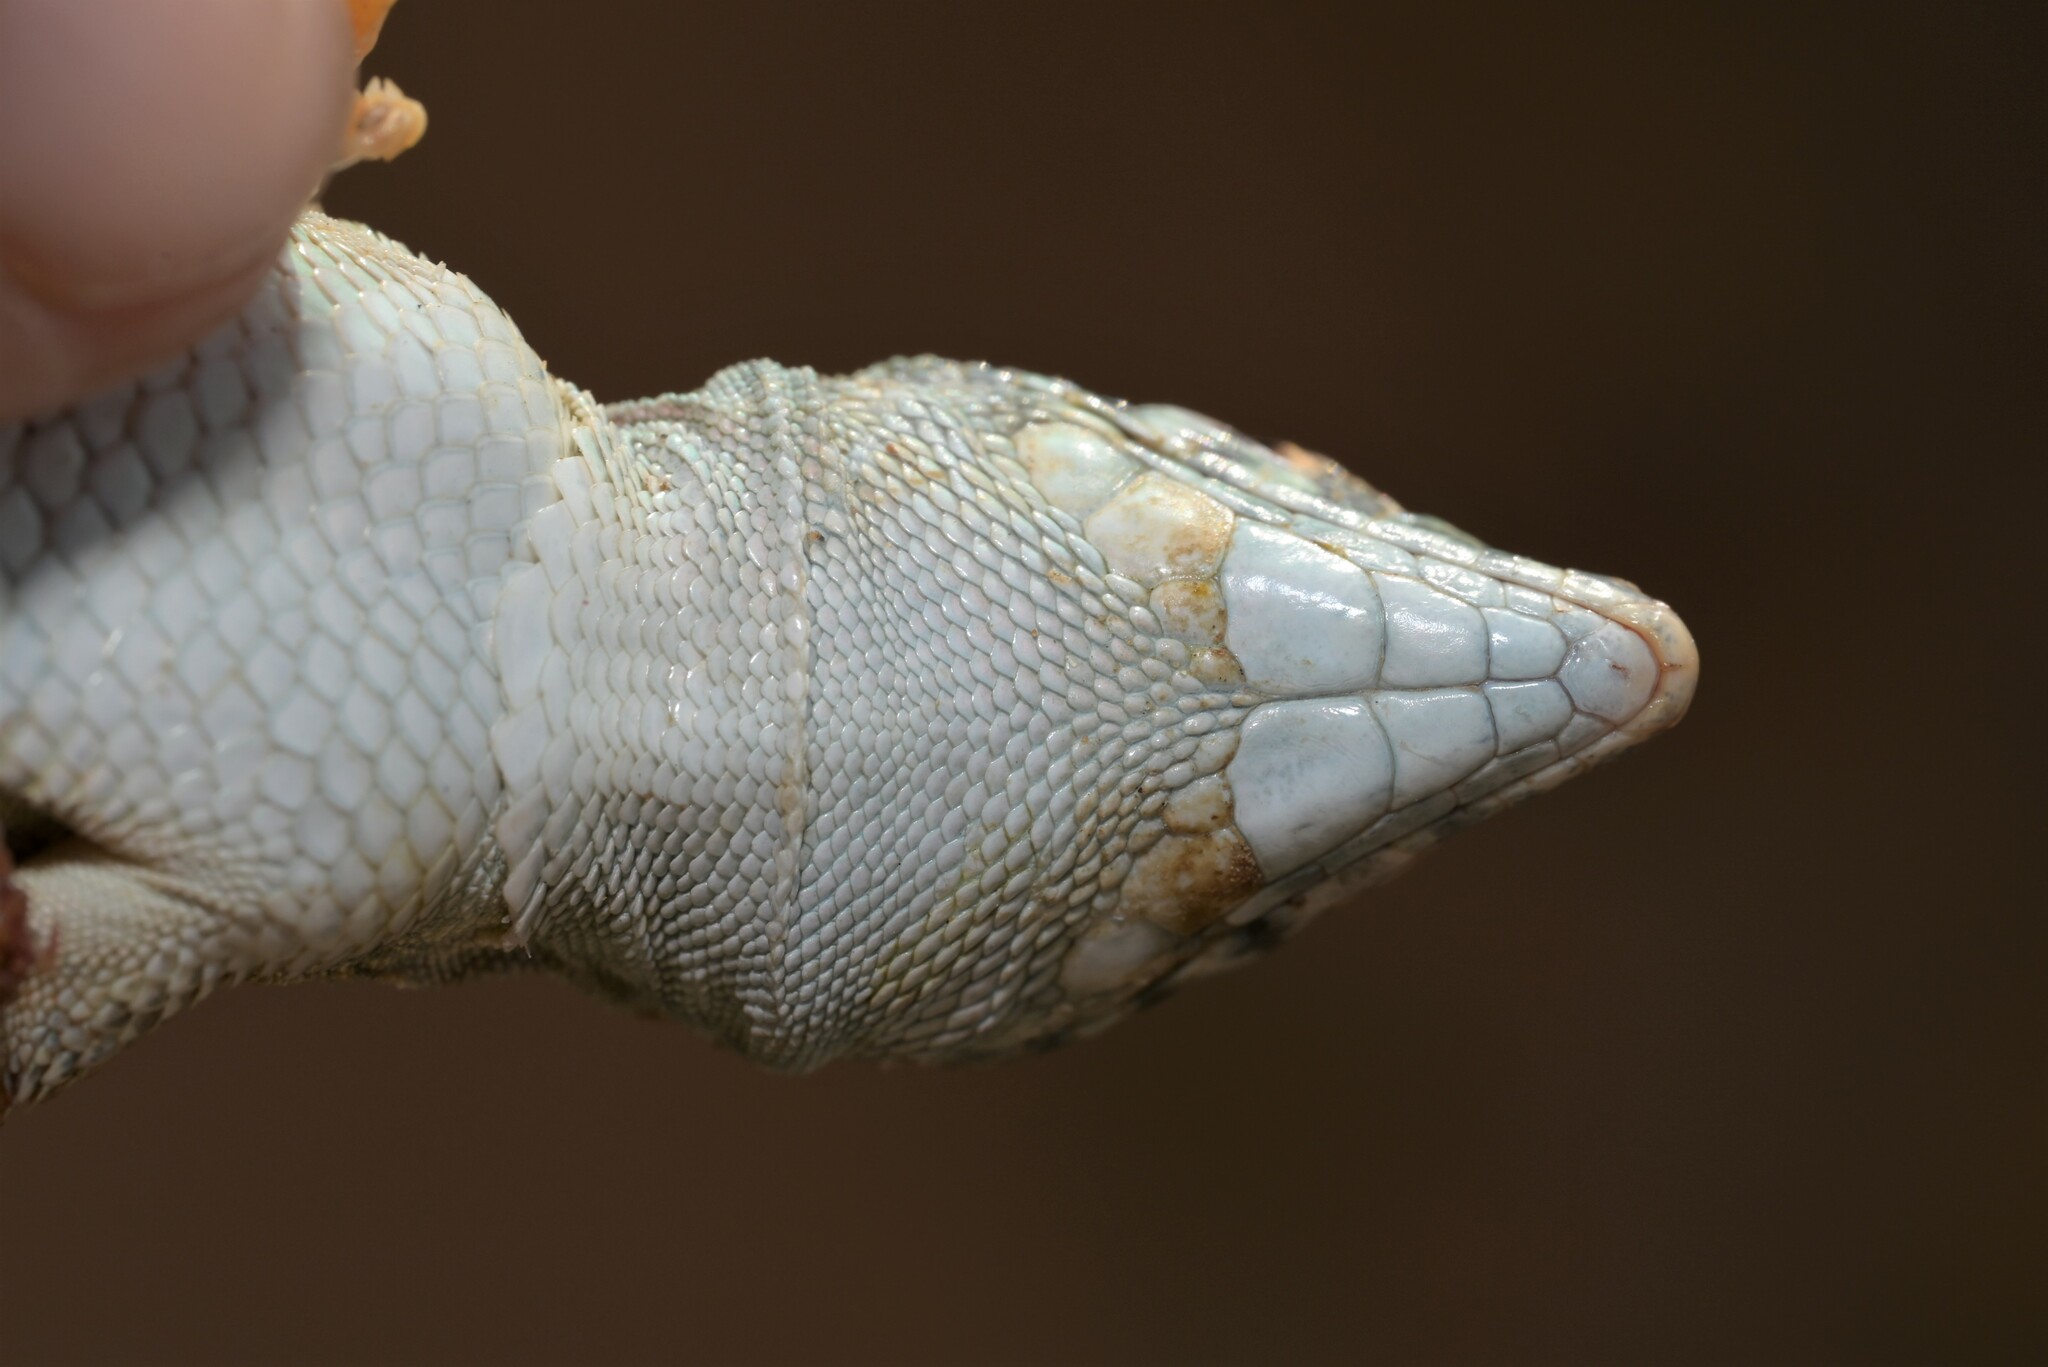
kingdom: Animalia
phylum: Chordata
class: Squamata
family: Lacertidae
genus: Acanthodactylus
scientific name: Acanthodactylus schmidti
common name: Schmidt's fringe-toed lizard
